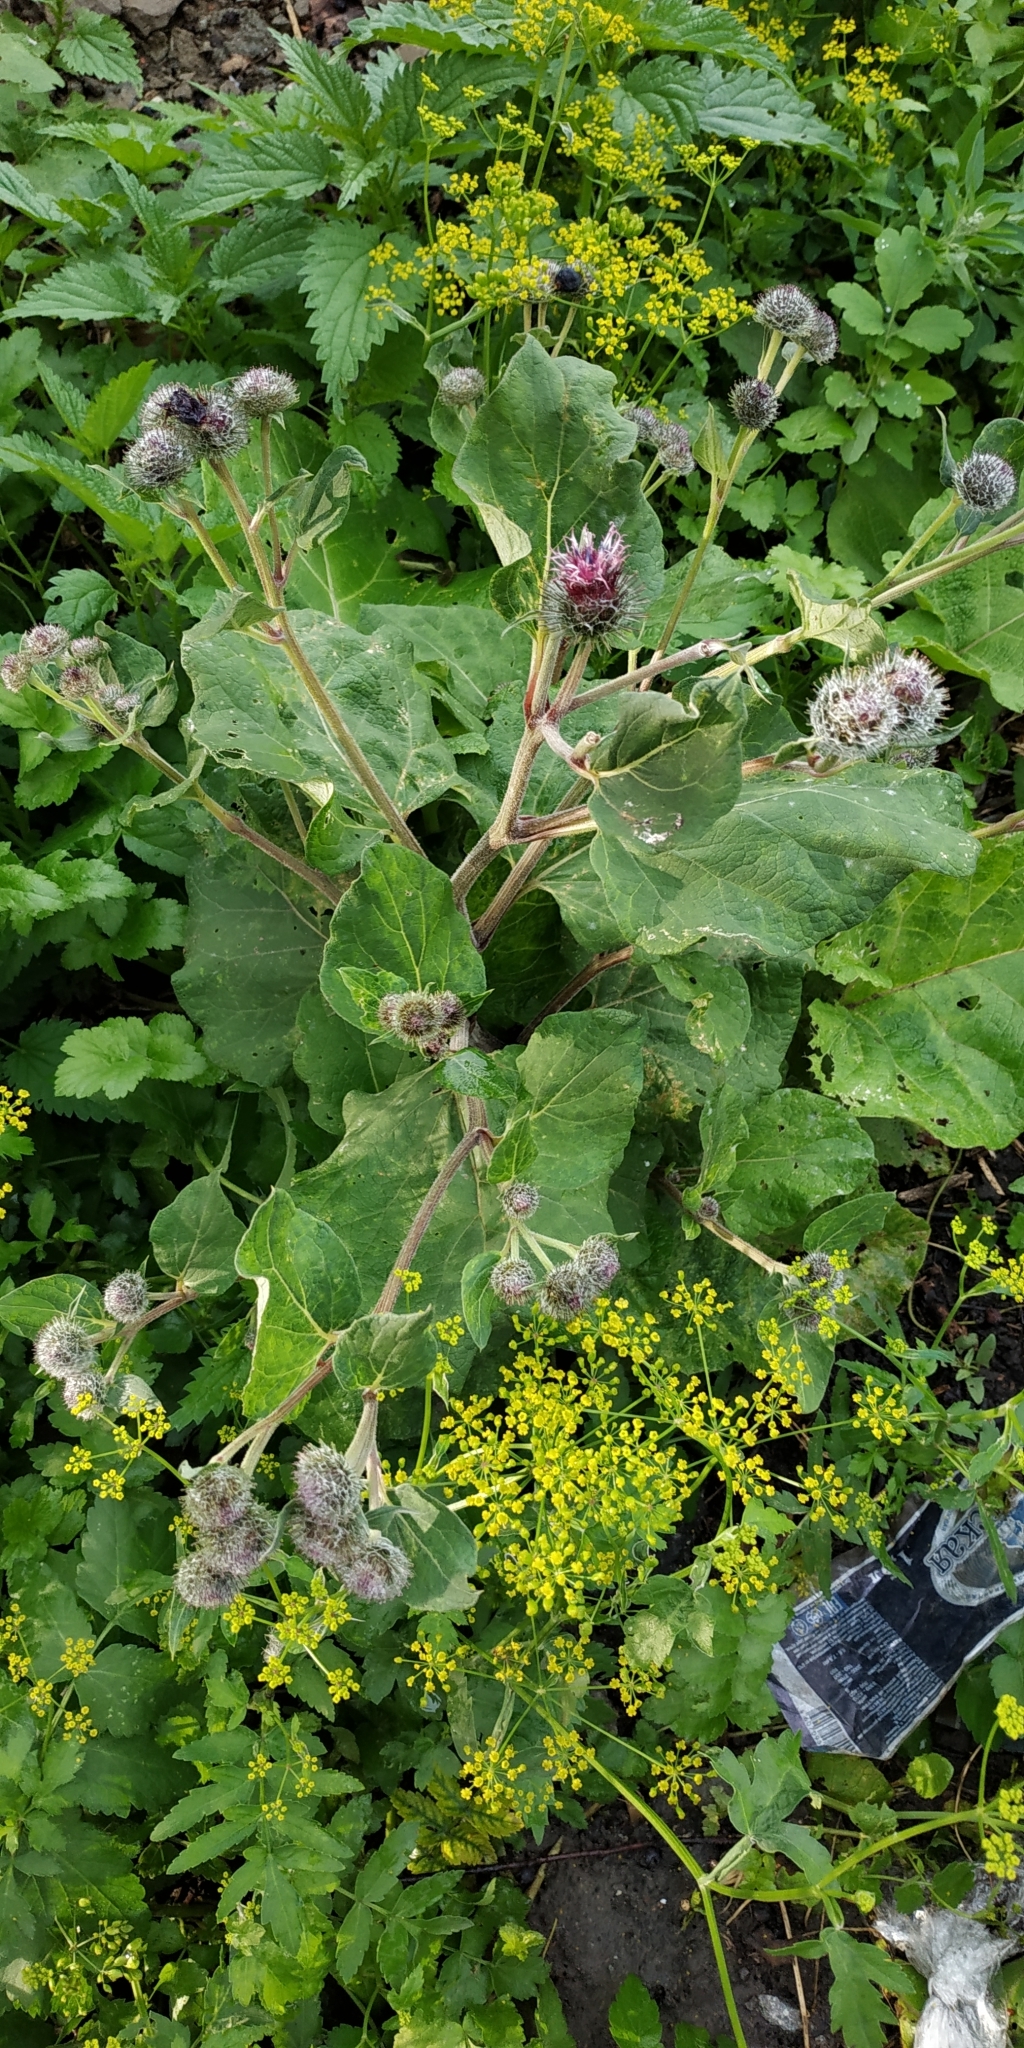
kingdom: Plantae
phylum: Tracheophyta
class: Magnoliopsida
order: Asterales
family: Asteraceae
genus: Arctium
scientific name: Arctium tomentosum
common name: Woolly burdock
